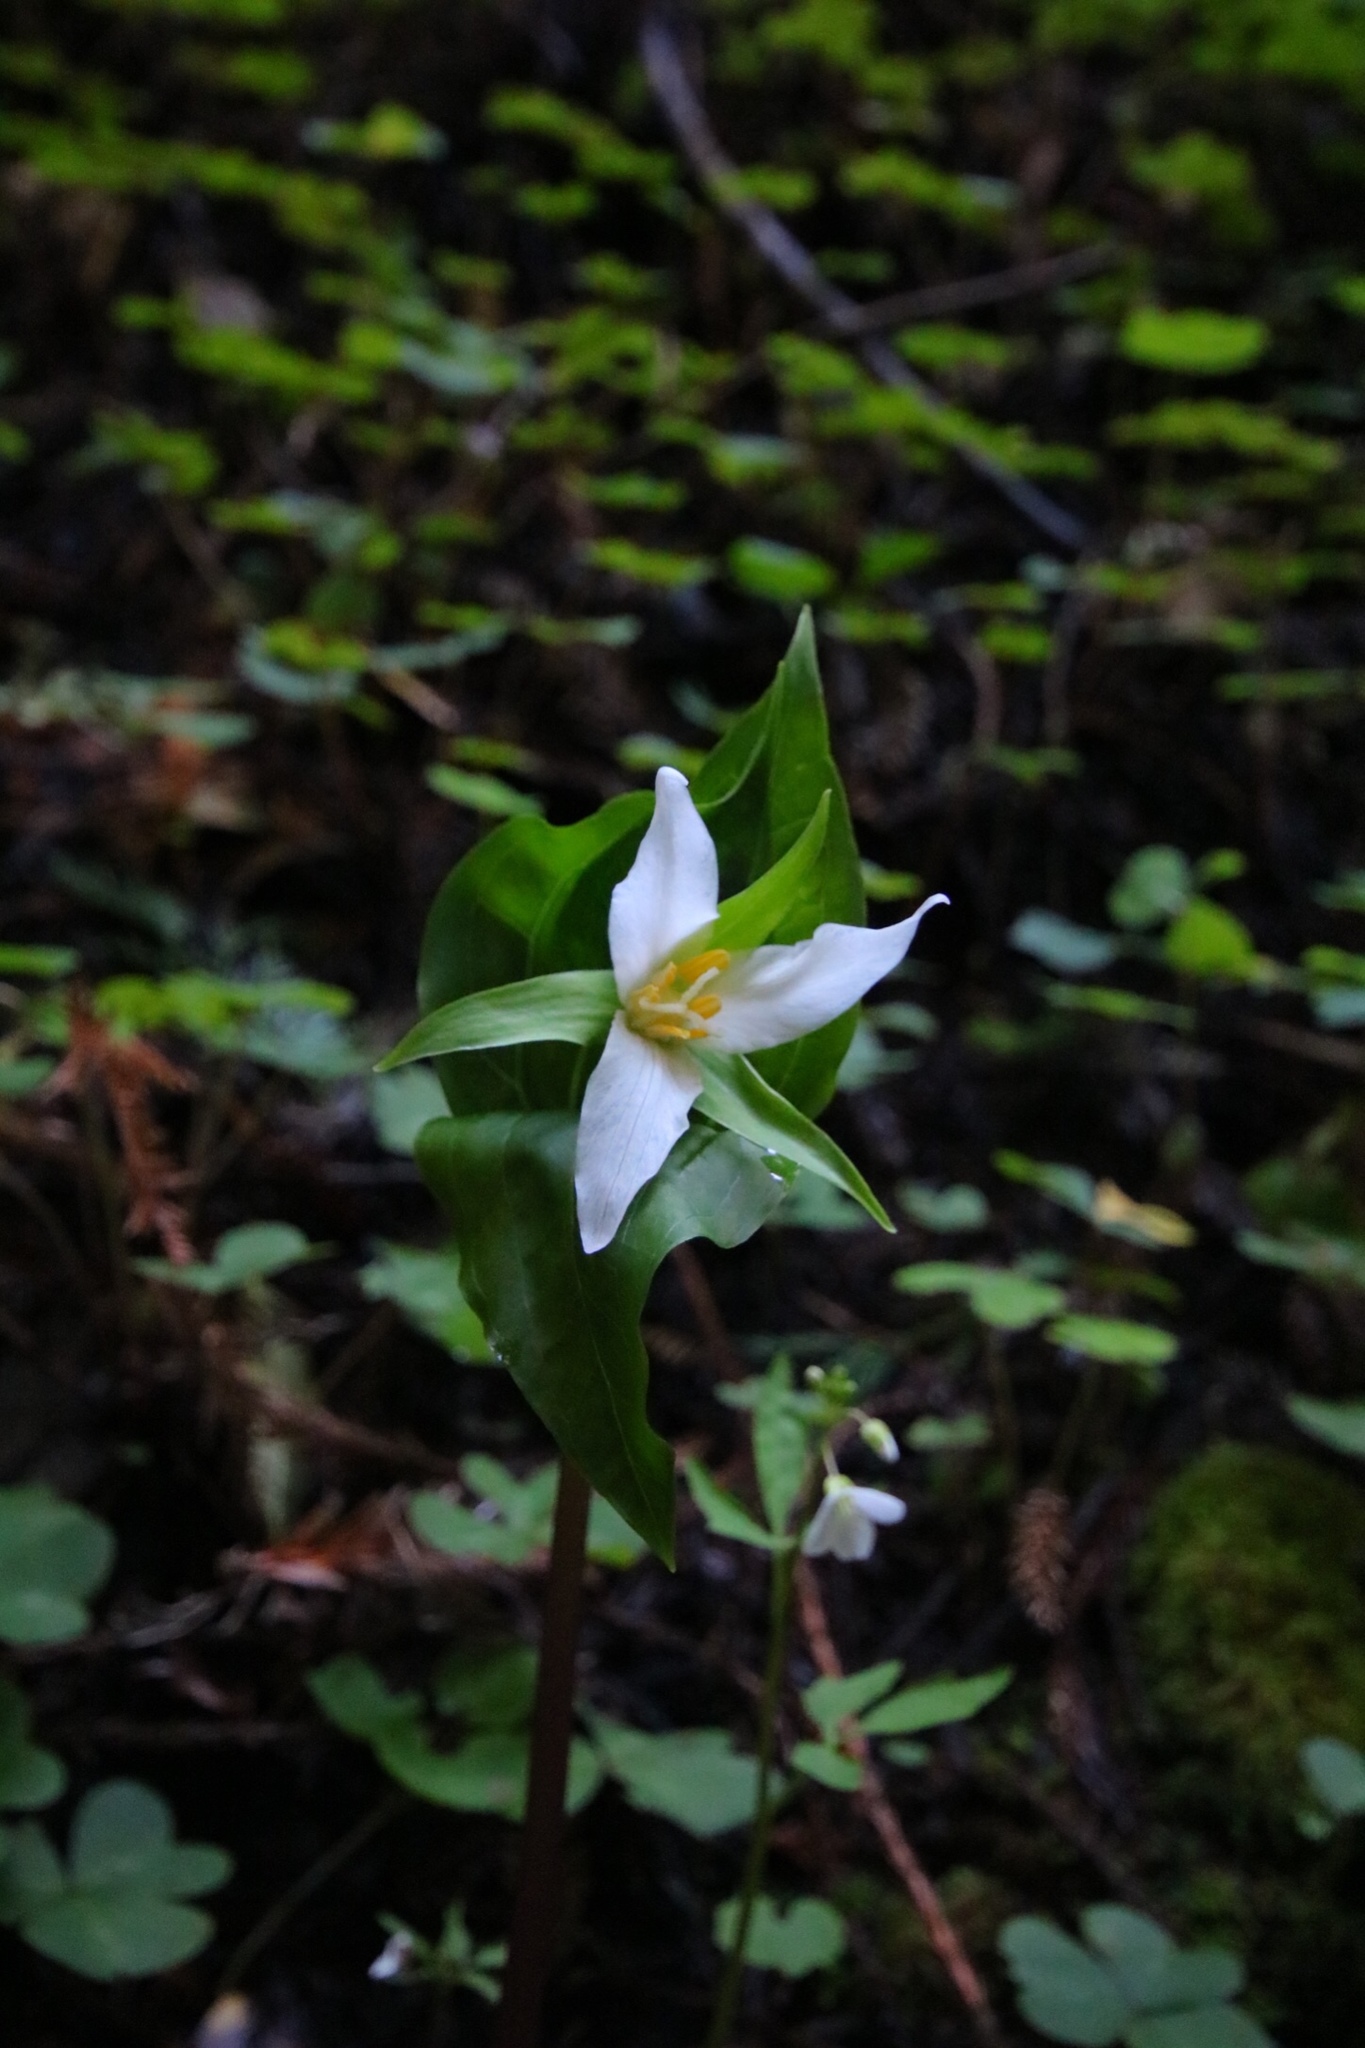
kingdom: Plantae
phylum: Tracheophyta
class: Liliopsida
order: Liliales
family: Melanthiaceae
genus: Trillium
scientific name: Trillium ovatum
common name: Pacific trillium
